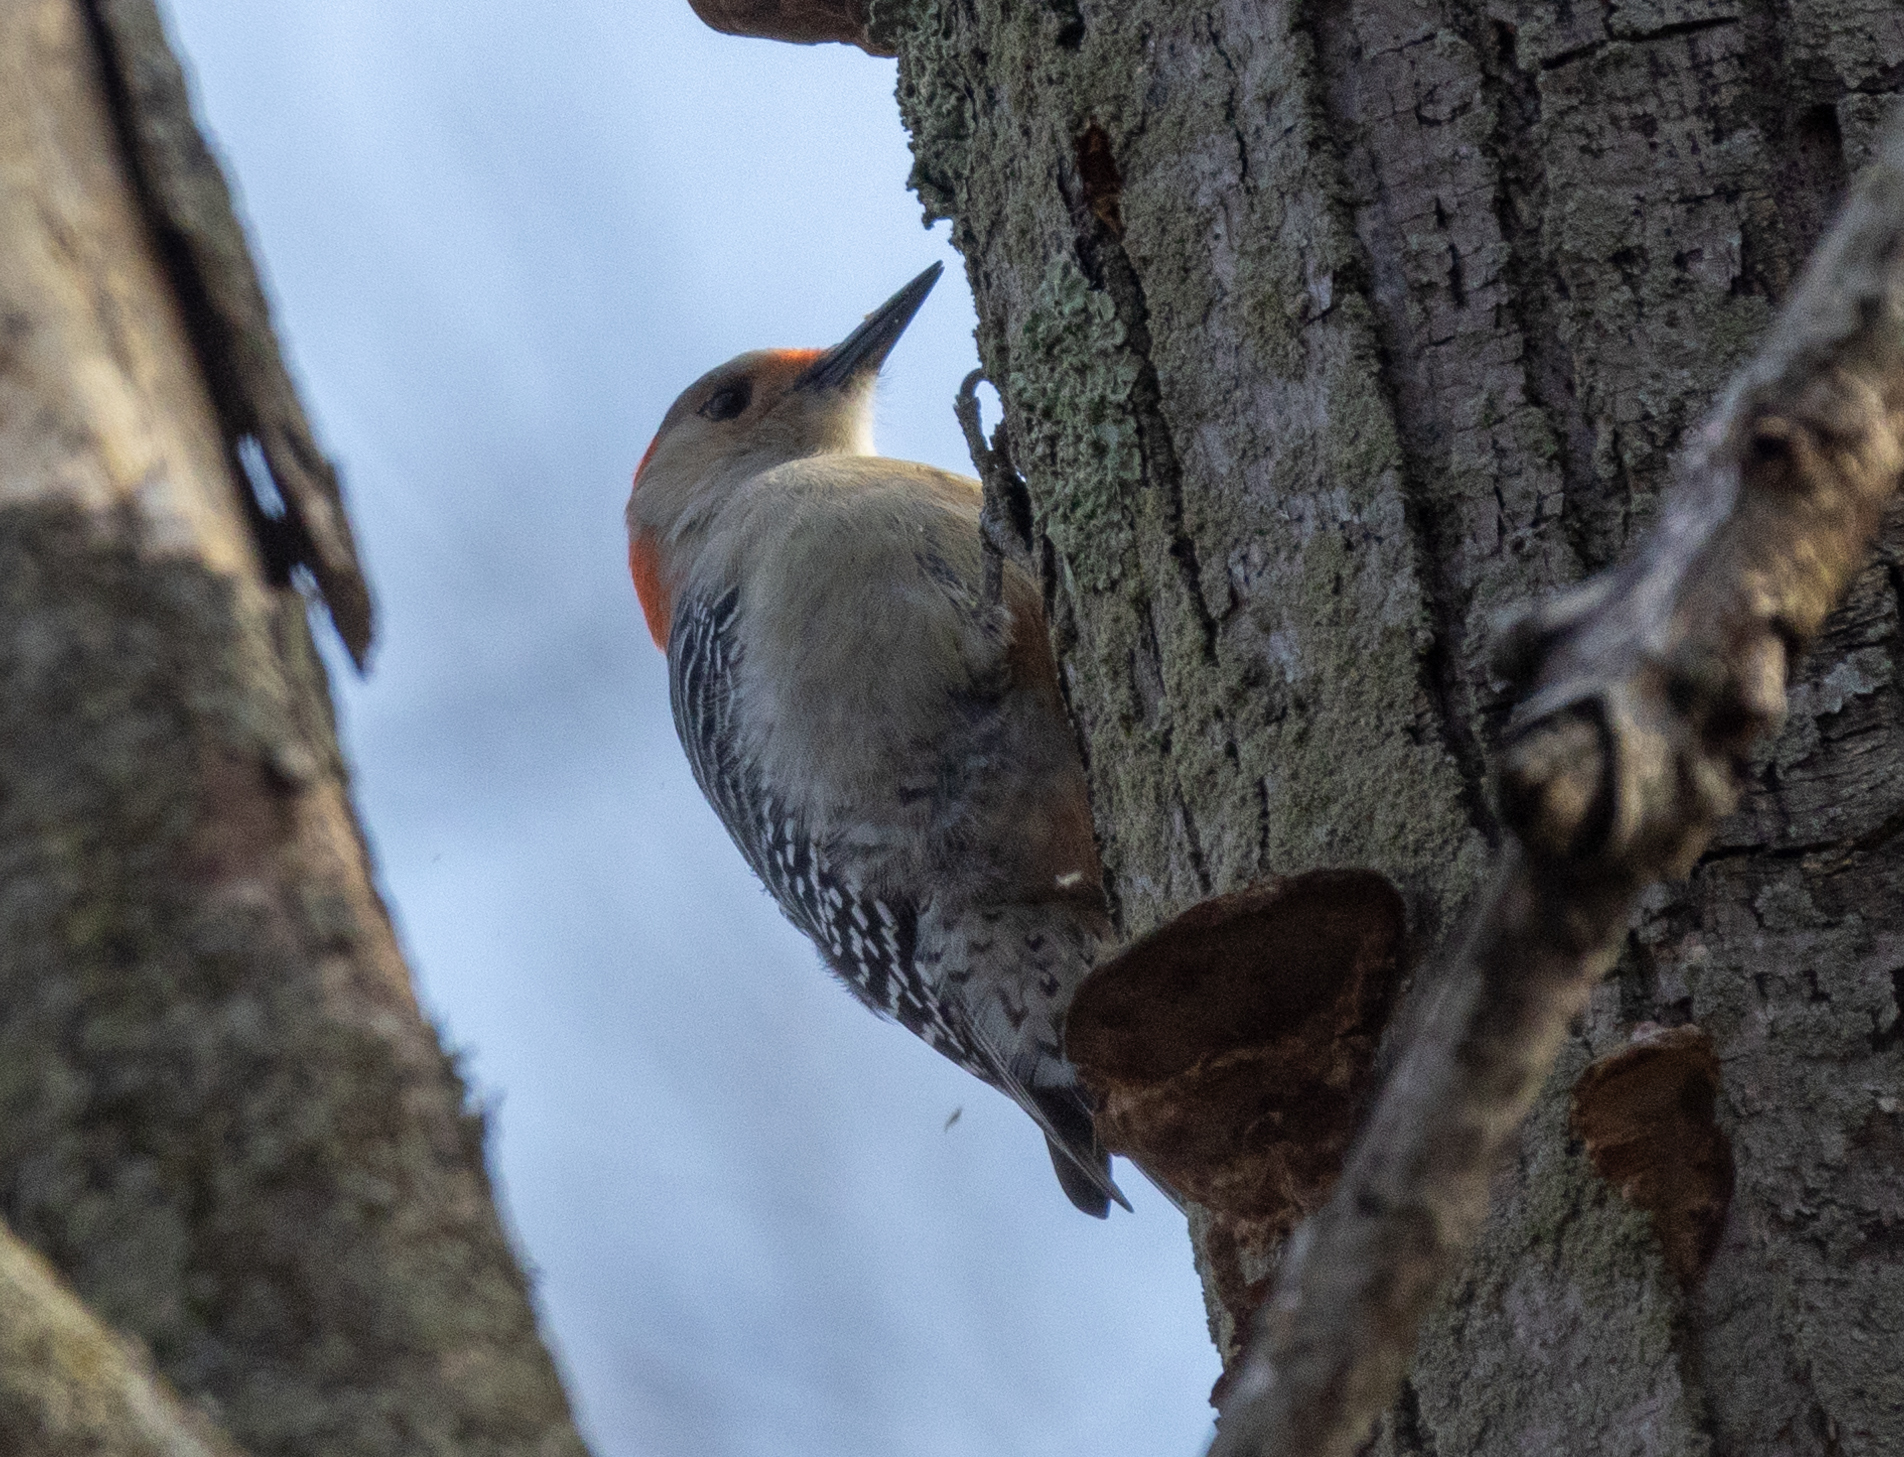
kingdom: Animalia
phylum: Chordata
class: Aves
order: Piciformes
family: Picidae
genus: Melanerpes
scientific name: Melanerpes carolinus
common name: Red-bellied woodpecker
